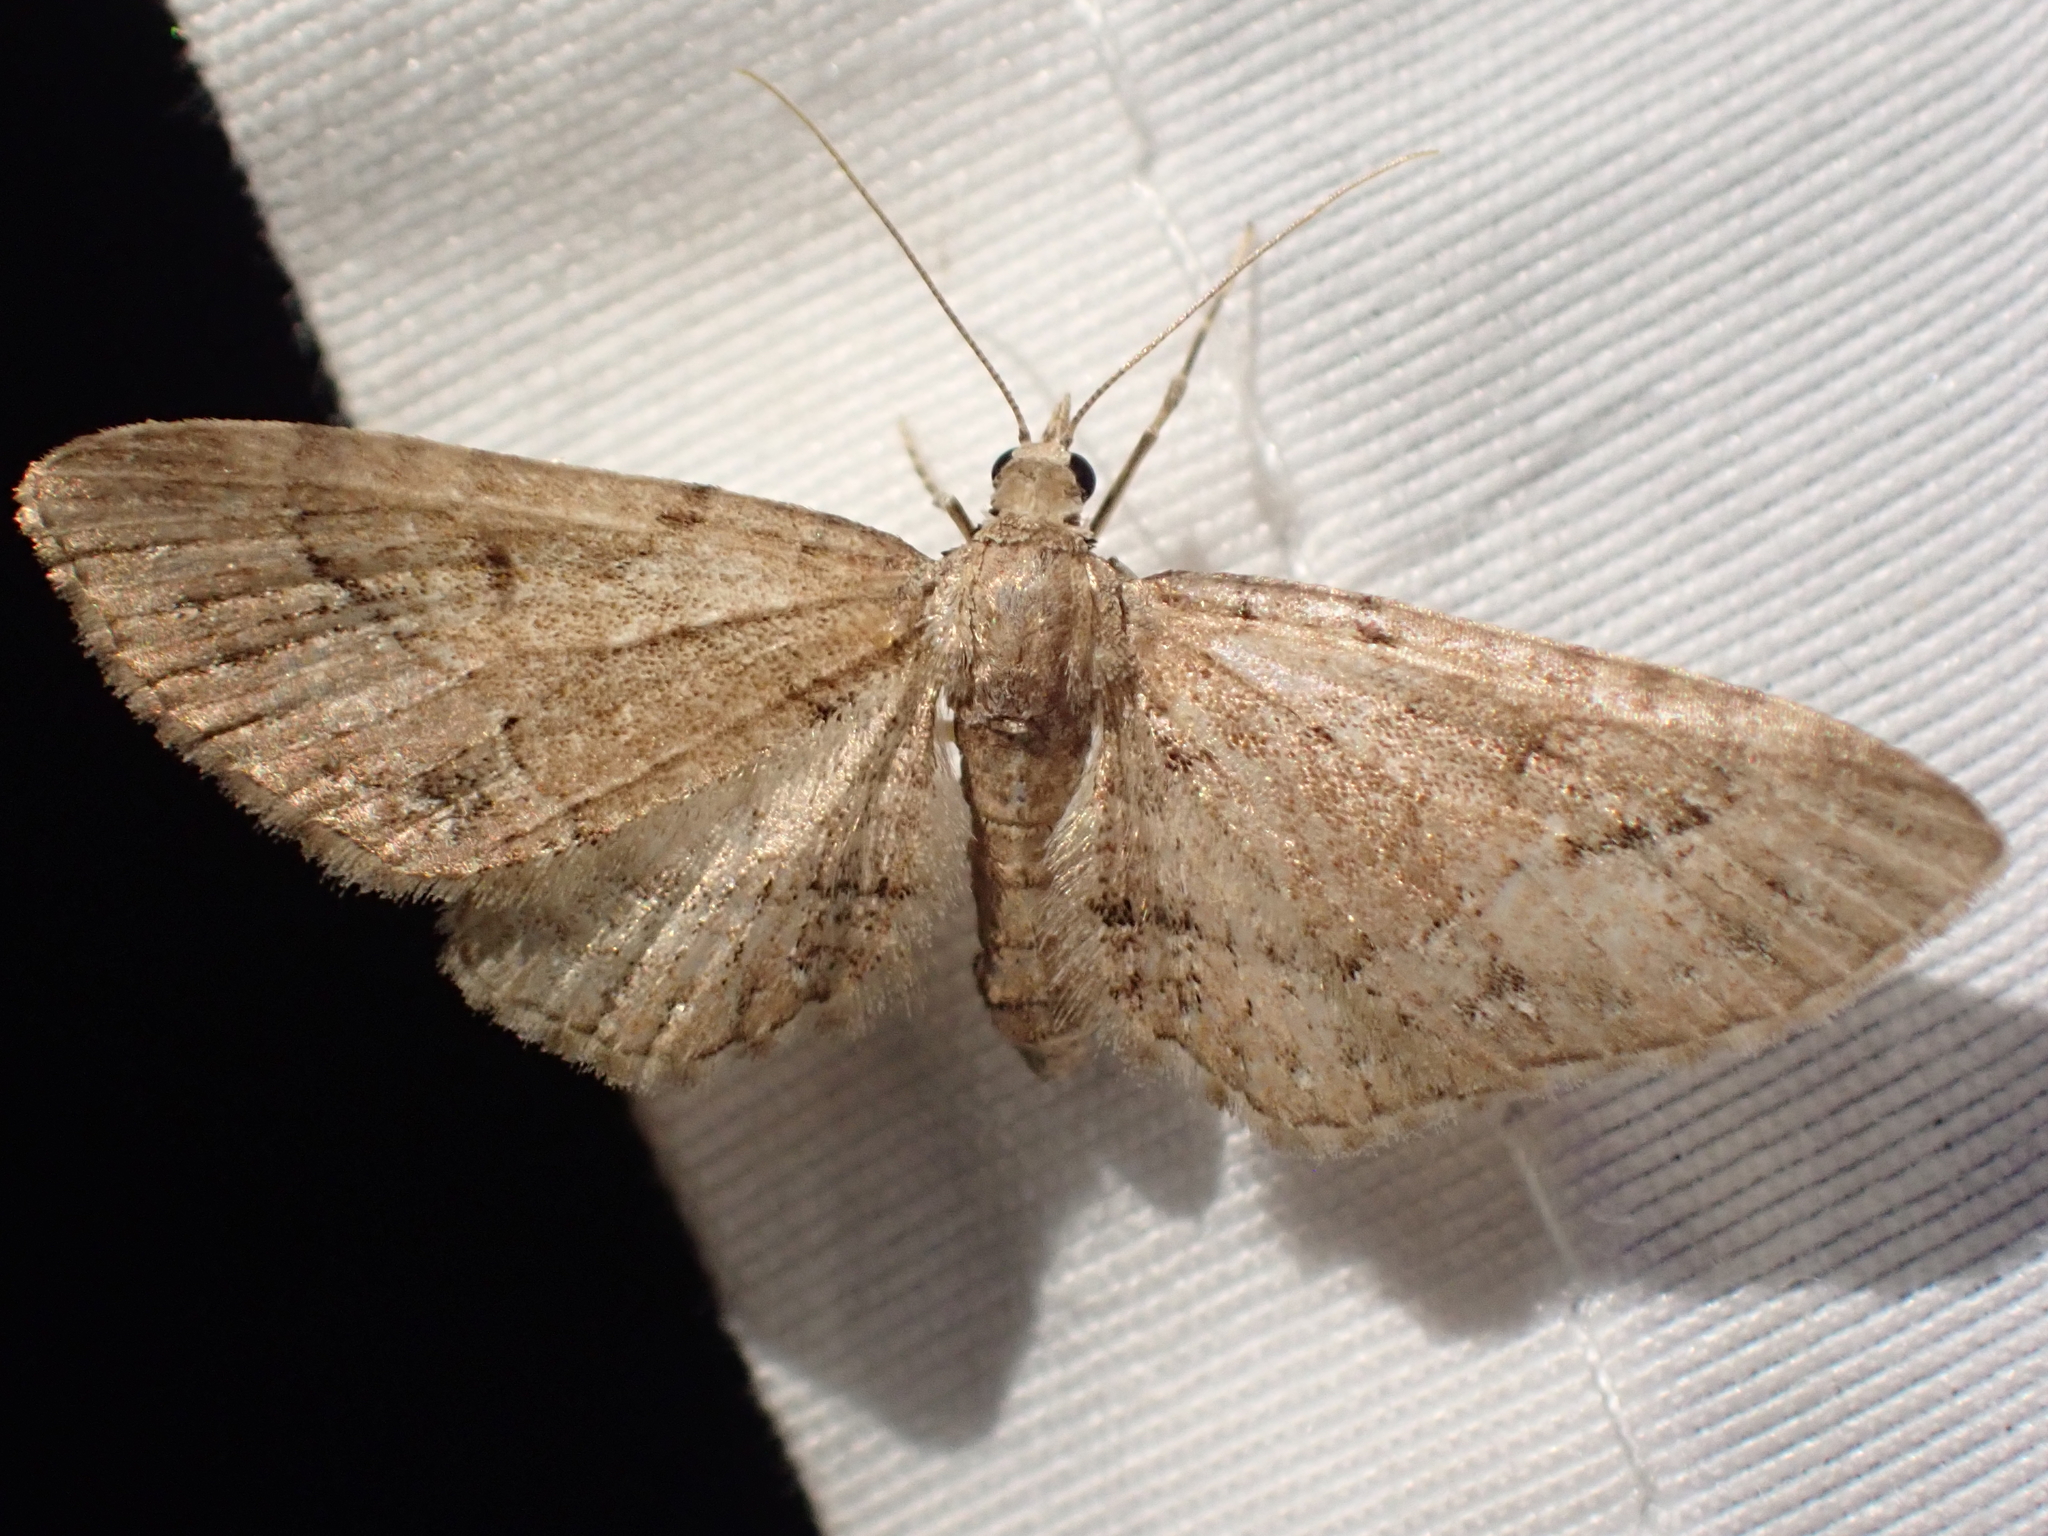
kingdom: Animalia
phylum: Arthropoda
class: Insecta
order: Lepidoptera
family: Geometridae
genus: Eupithecia
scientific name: Eupithecia unicolor
